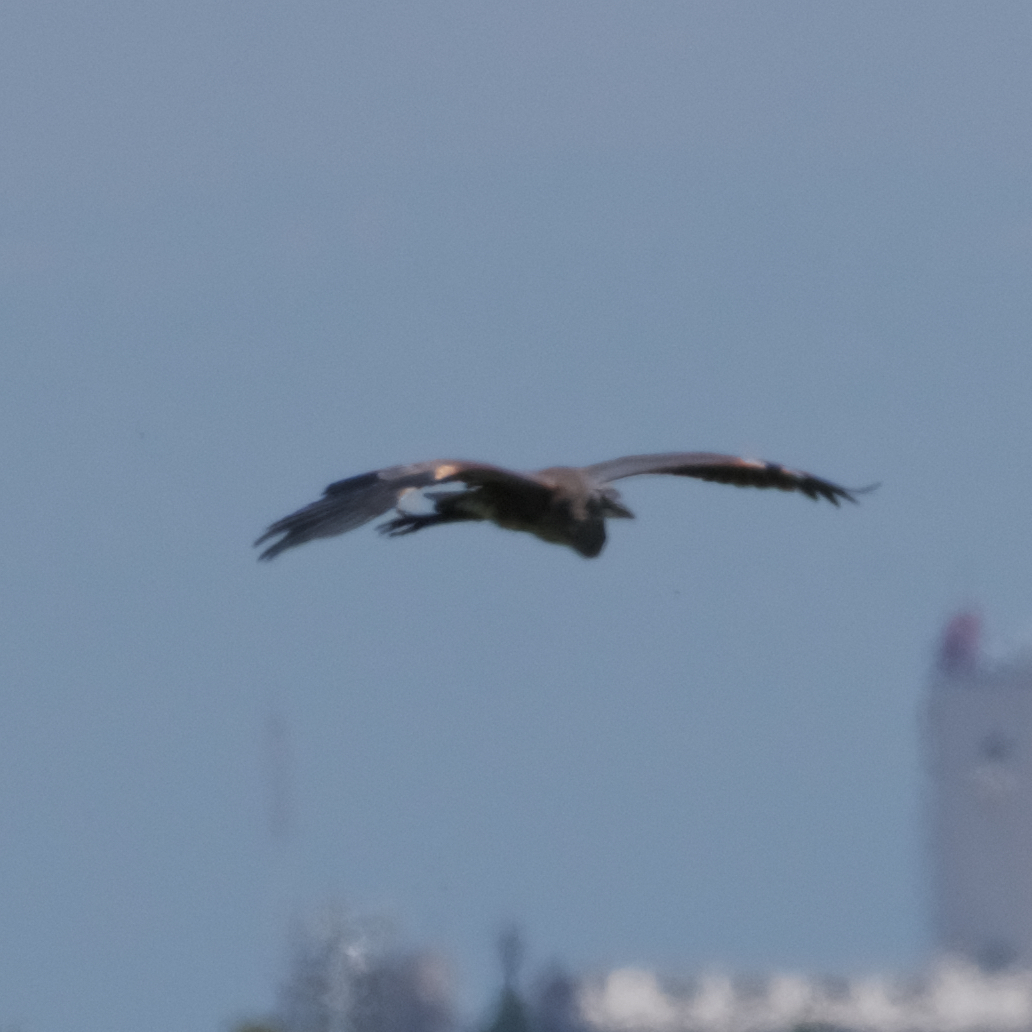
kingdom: Animalia
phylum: Chordata
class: Aves
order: Pelecaniformes
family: Ardeidae
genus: Ardea
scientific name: Ardea herodias
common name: Great blue heron
